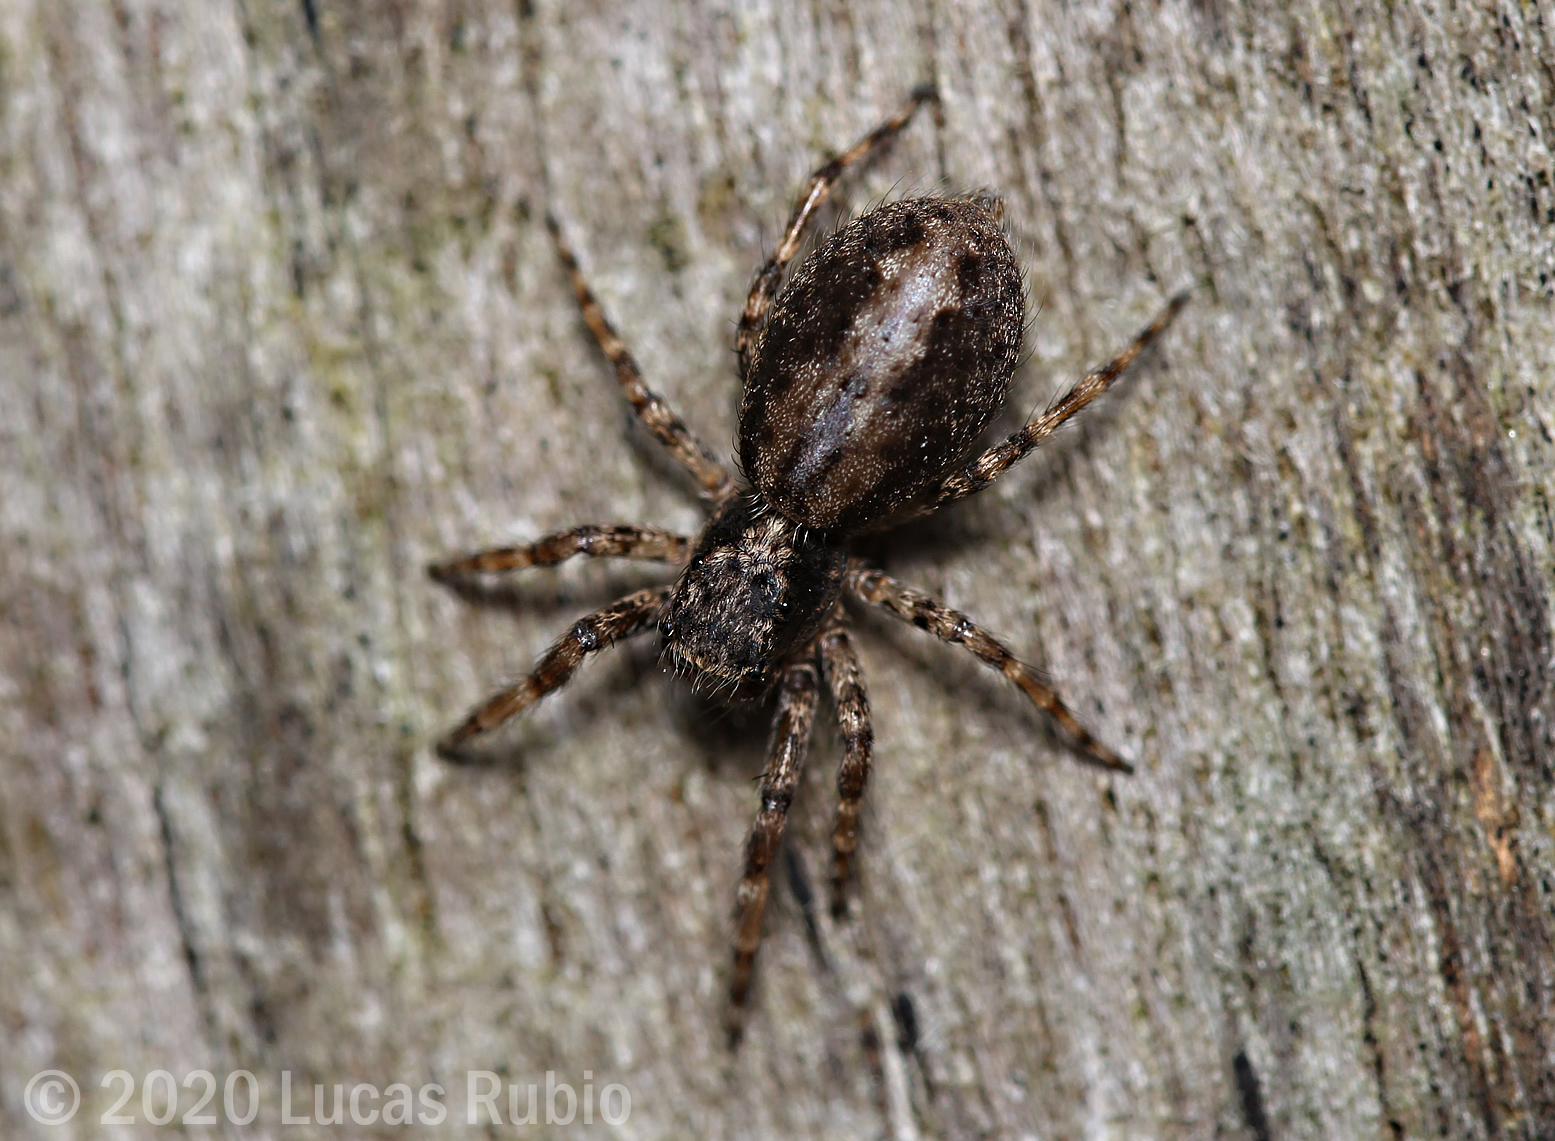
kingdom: Animalia
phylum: Arthropoda
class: Arachnida
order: Araneae
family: Salticidae
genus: Titanattus
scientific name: Titanattus andinus
